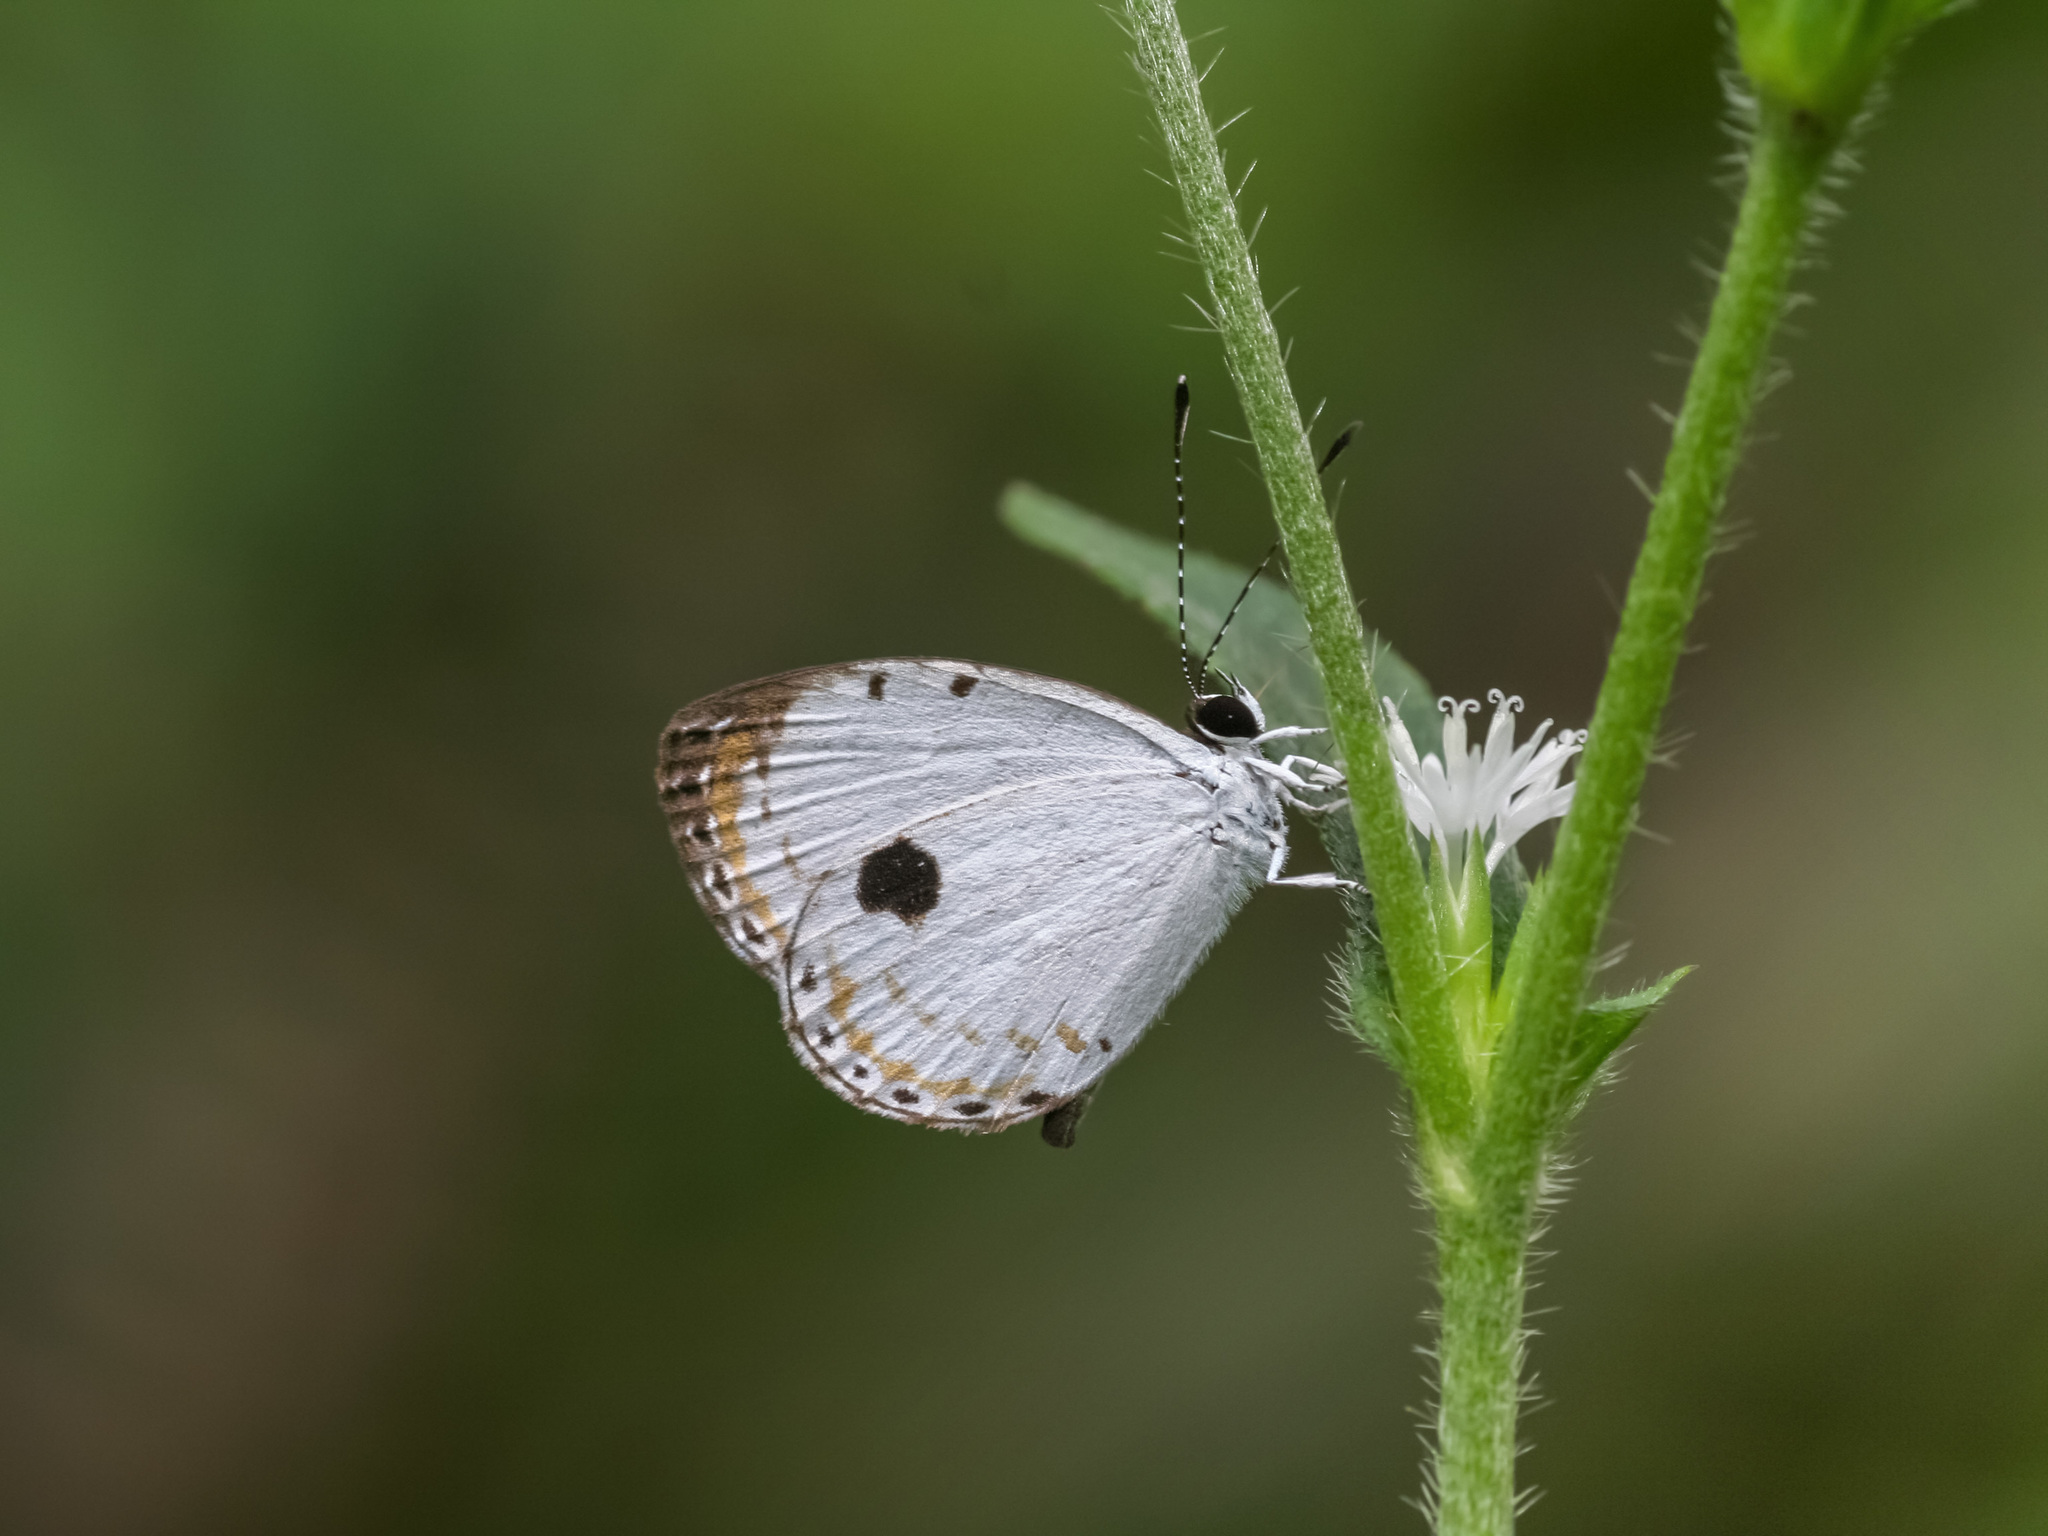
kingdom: Animalia
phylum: Arthropoda
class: Insecta
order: Lepidoptera
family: Lycaenidae
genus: Pithecops
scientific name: Pithecops corvus
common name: Forest quaker
